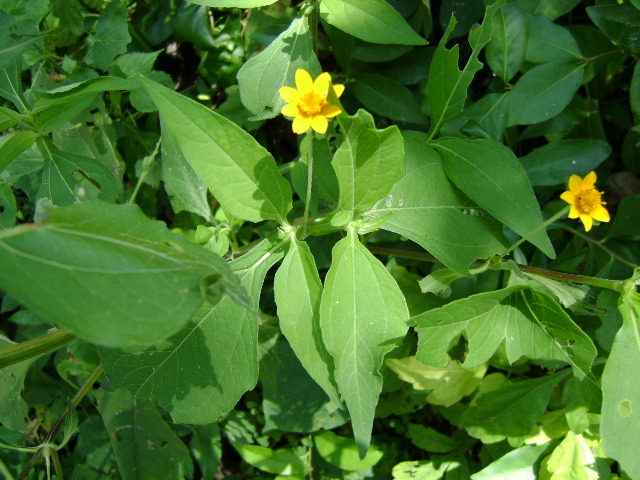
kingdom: Plantae
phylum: Tracheophyta
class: Magnoliopsida
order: Asterales
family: Asteraceae
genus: Melampodium
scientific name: Melampodium divaricatum
